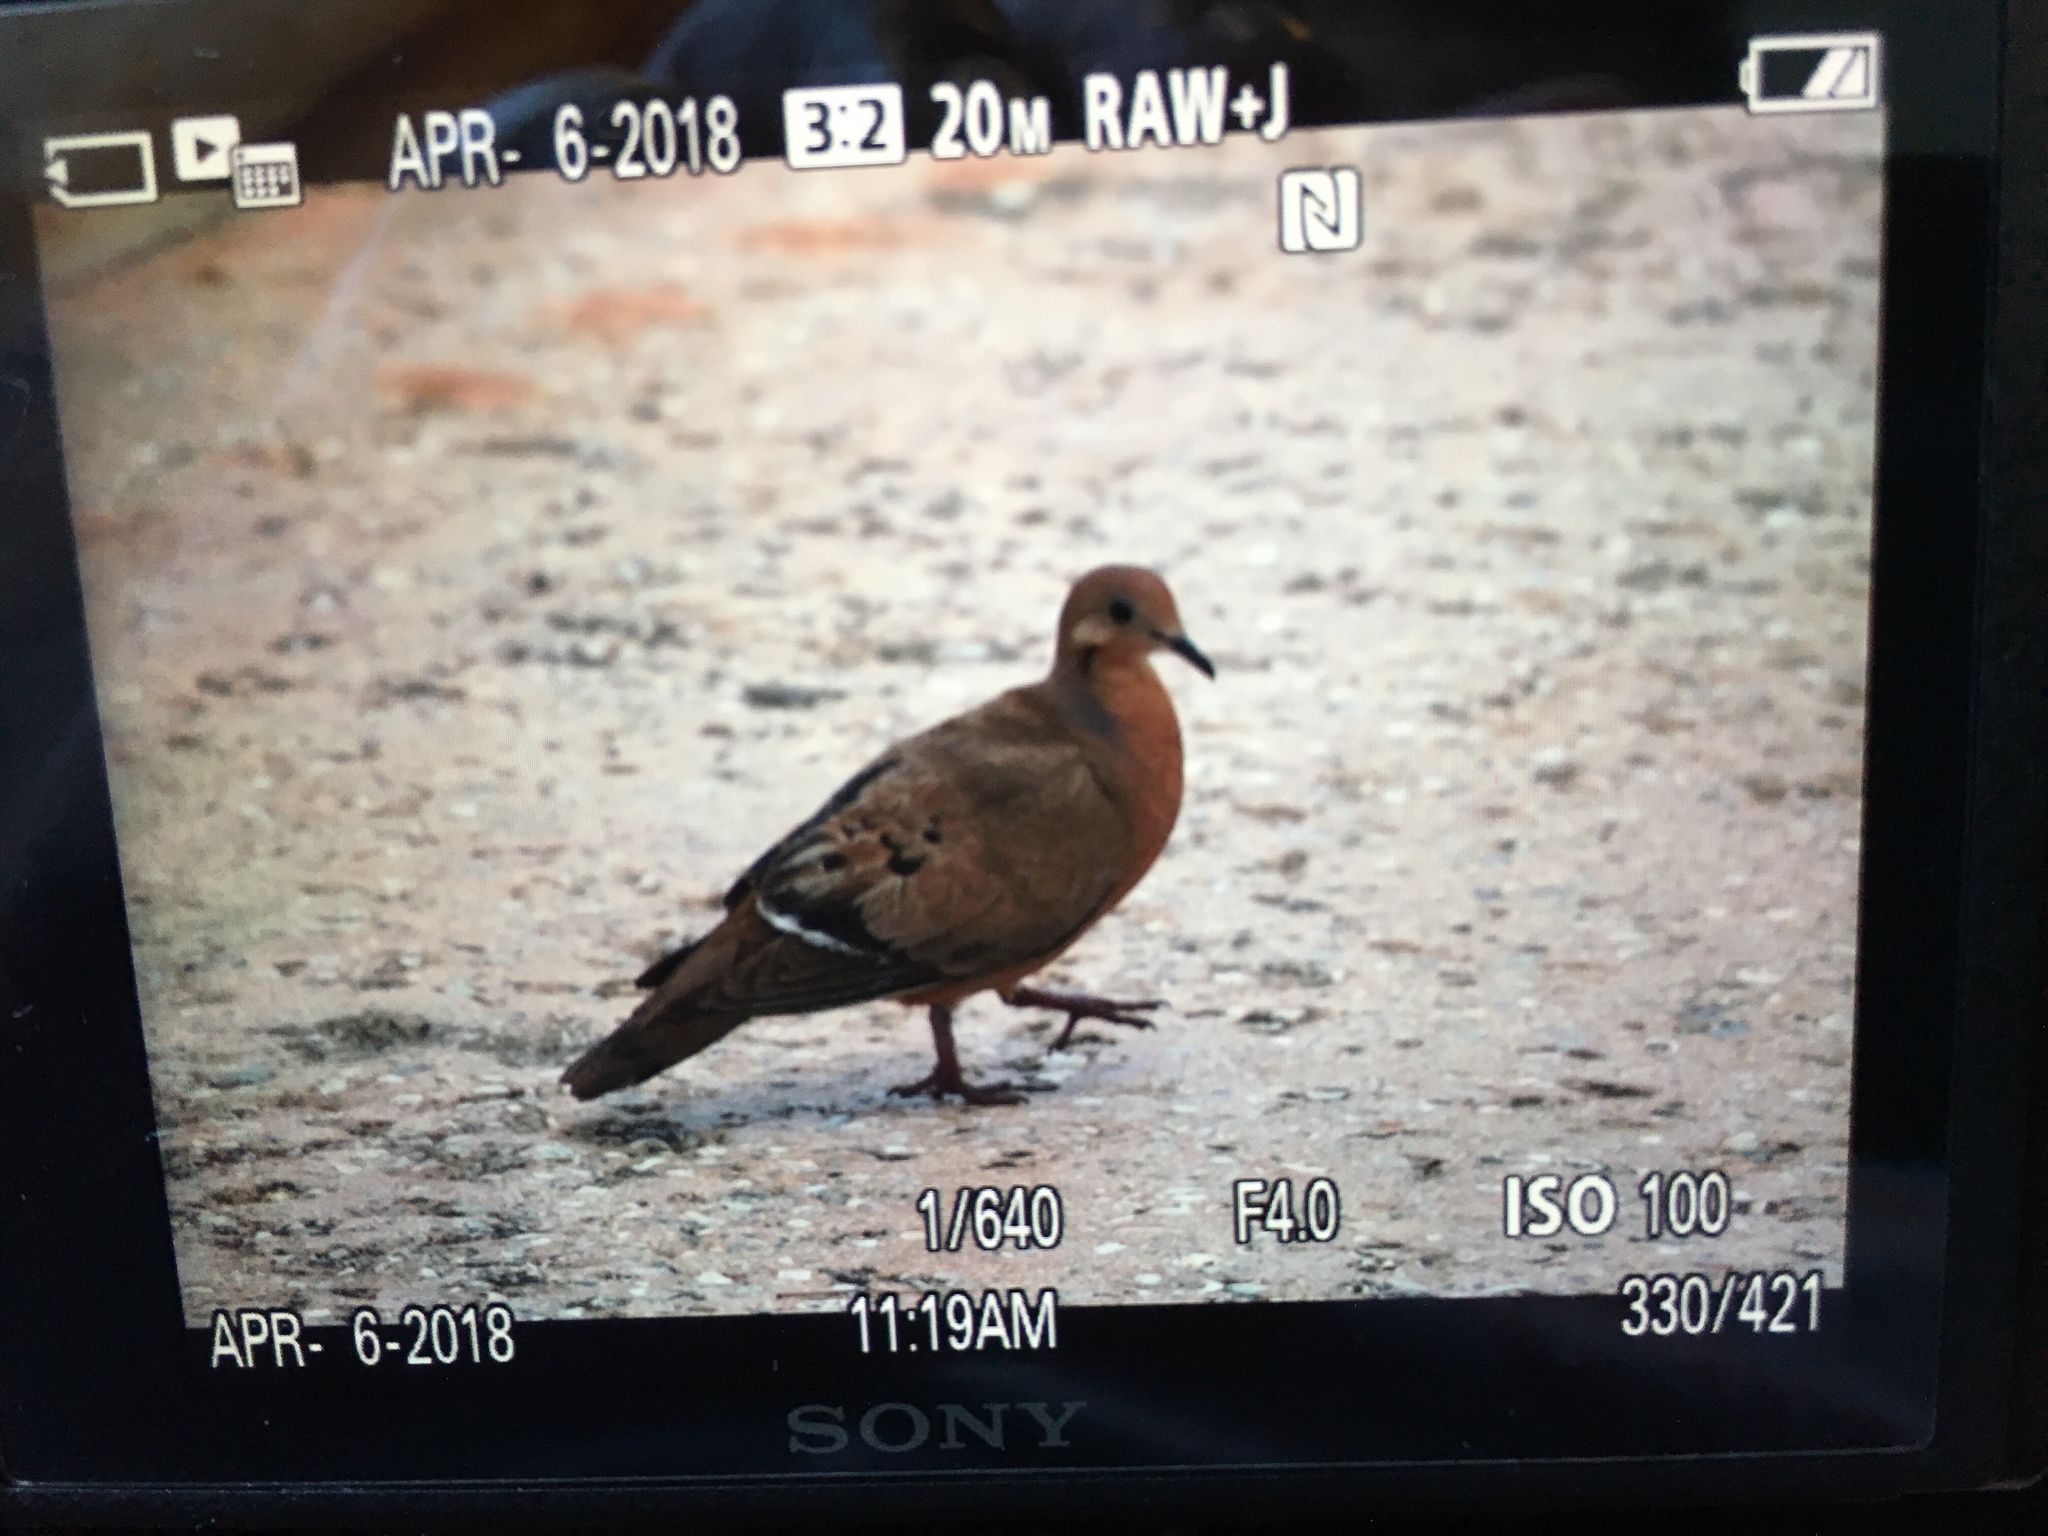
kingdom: Animalia
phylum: Chordata
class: Aves
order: Columbiformes
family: Columbidae
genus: Zenaida
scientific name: Zenaida aurita
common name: Zenaida dove
